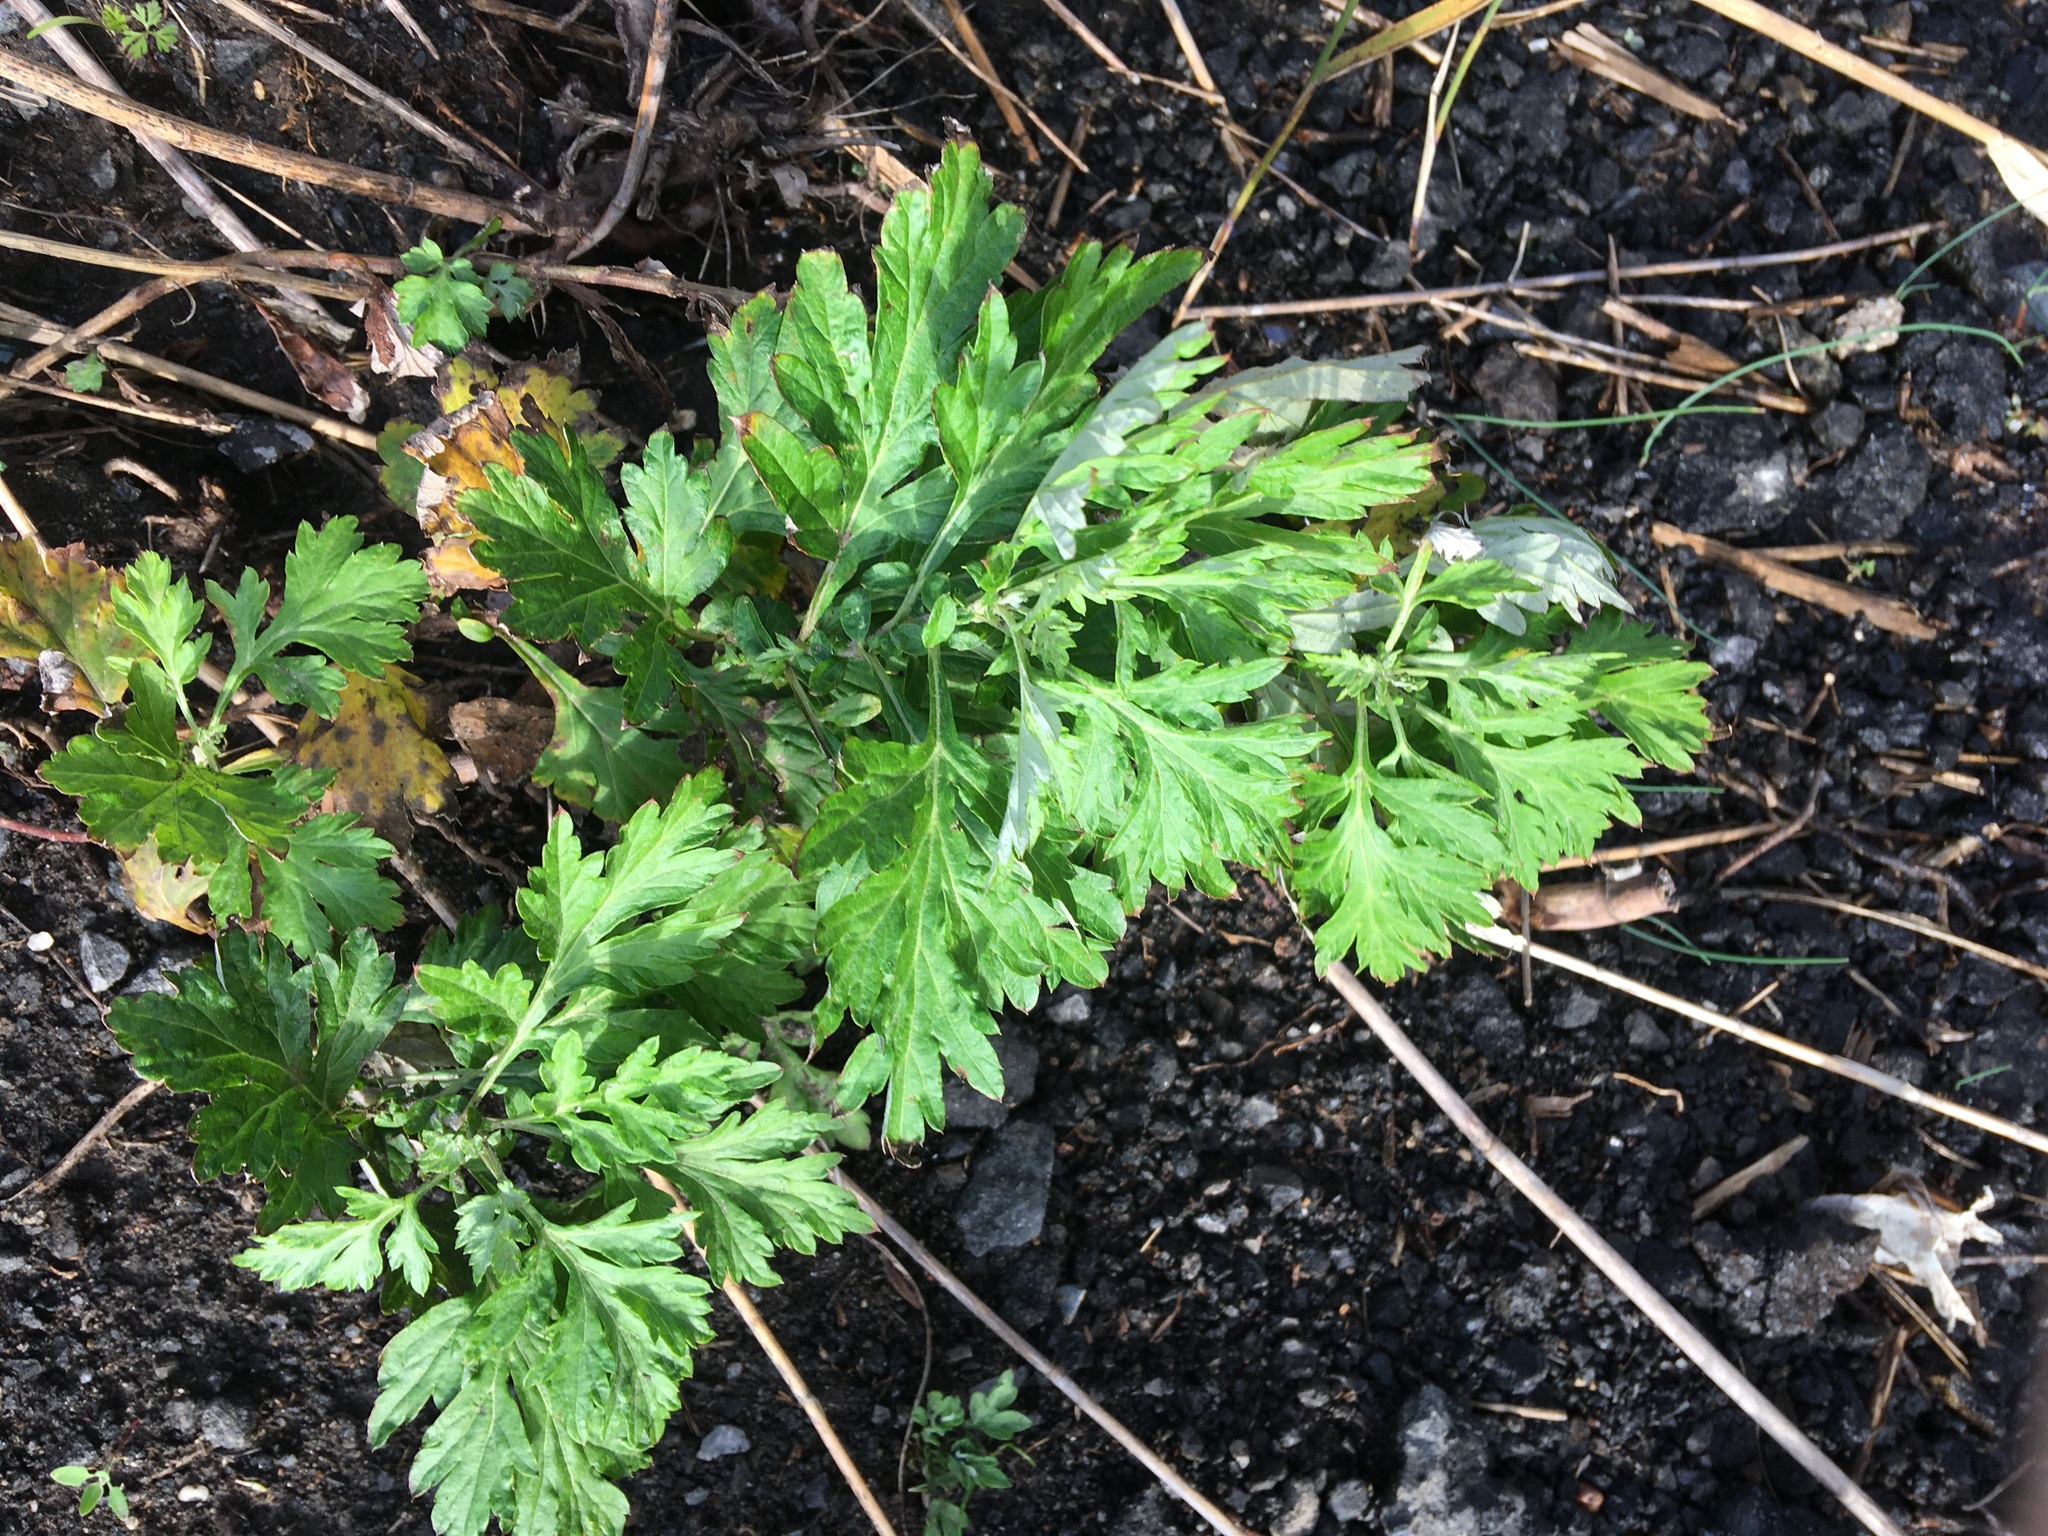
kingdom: Plantae
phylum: Tracheophyta
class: Magnoliopsida
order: Asterales
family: Asteraceae
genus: Artemisia
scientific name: Artemisia vulgaris
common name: Mugwort
